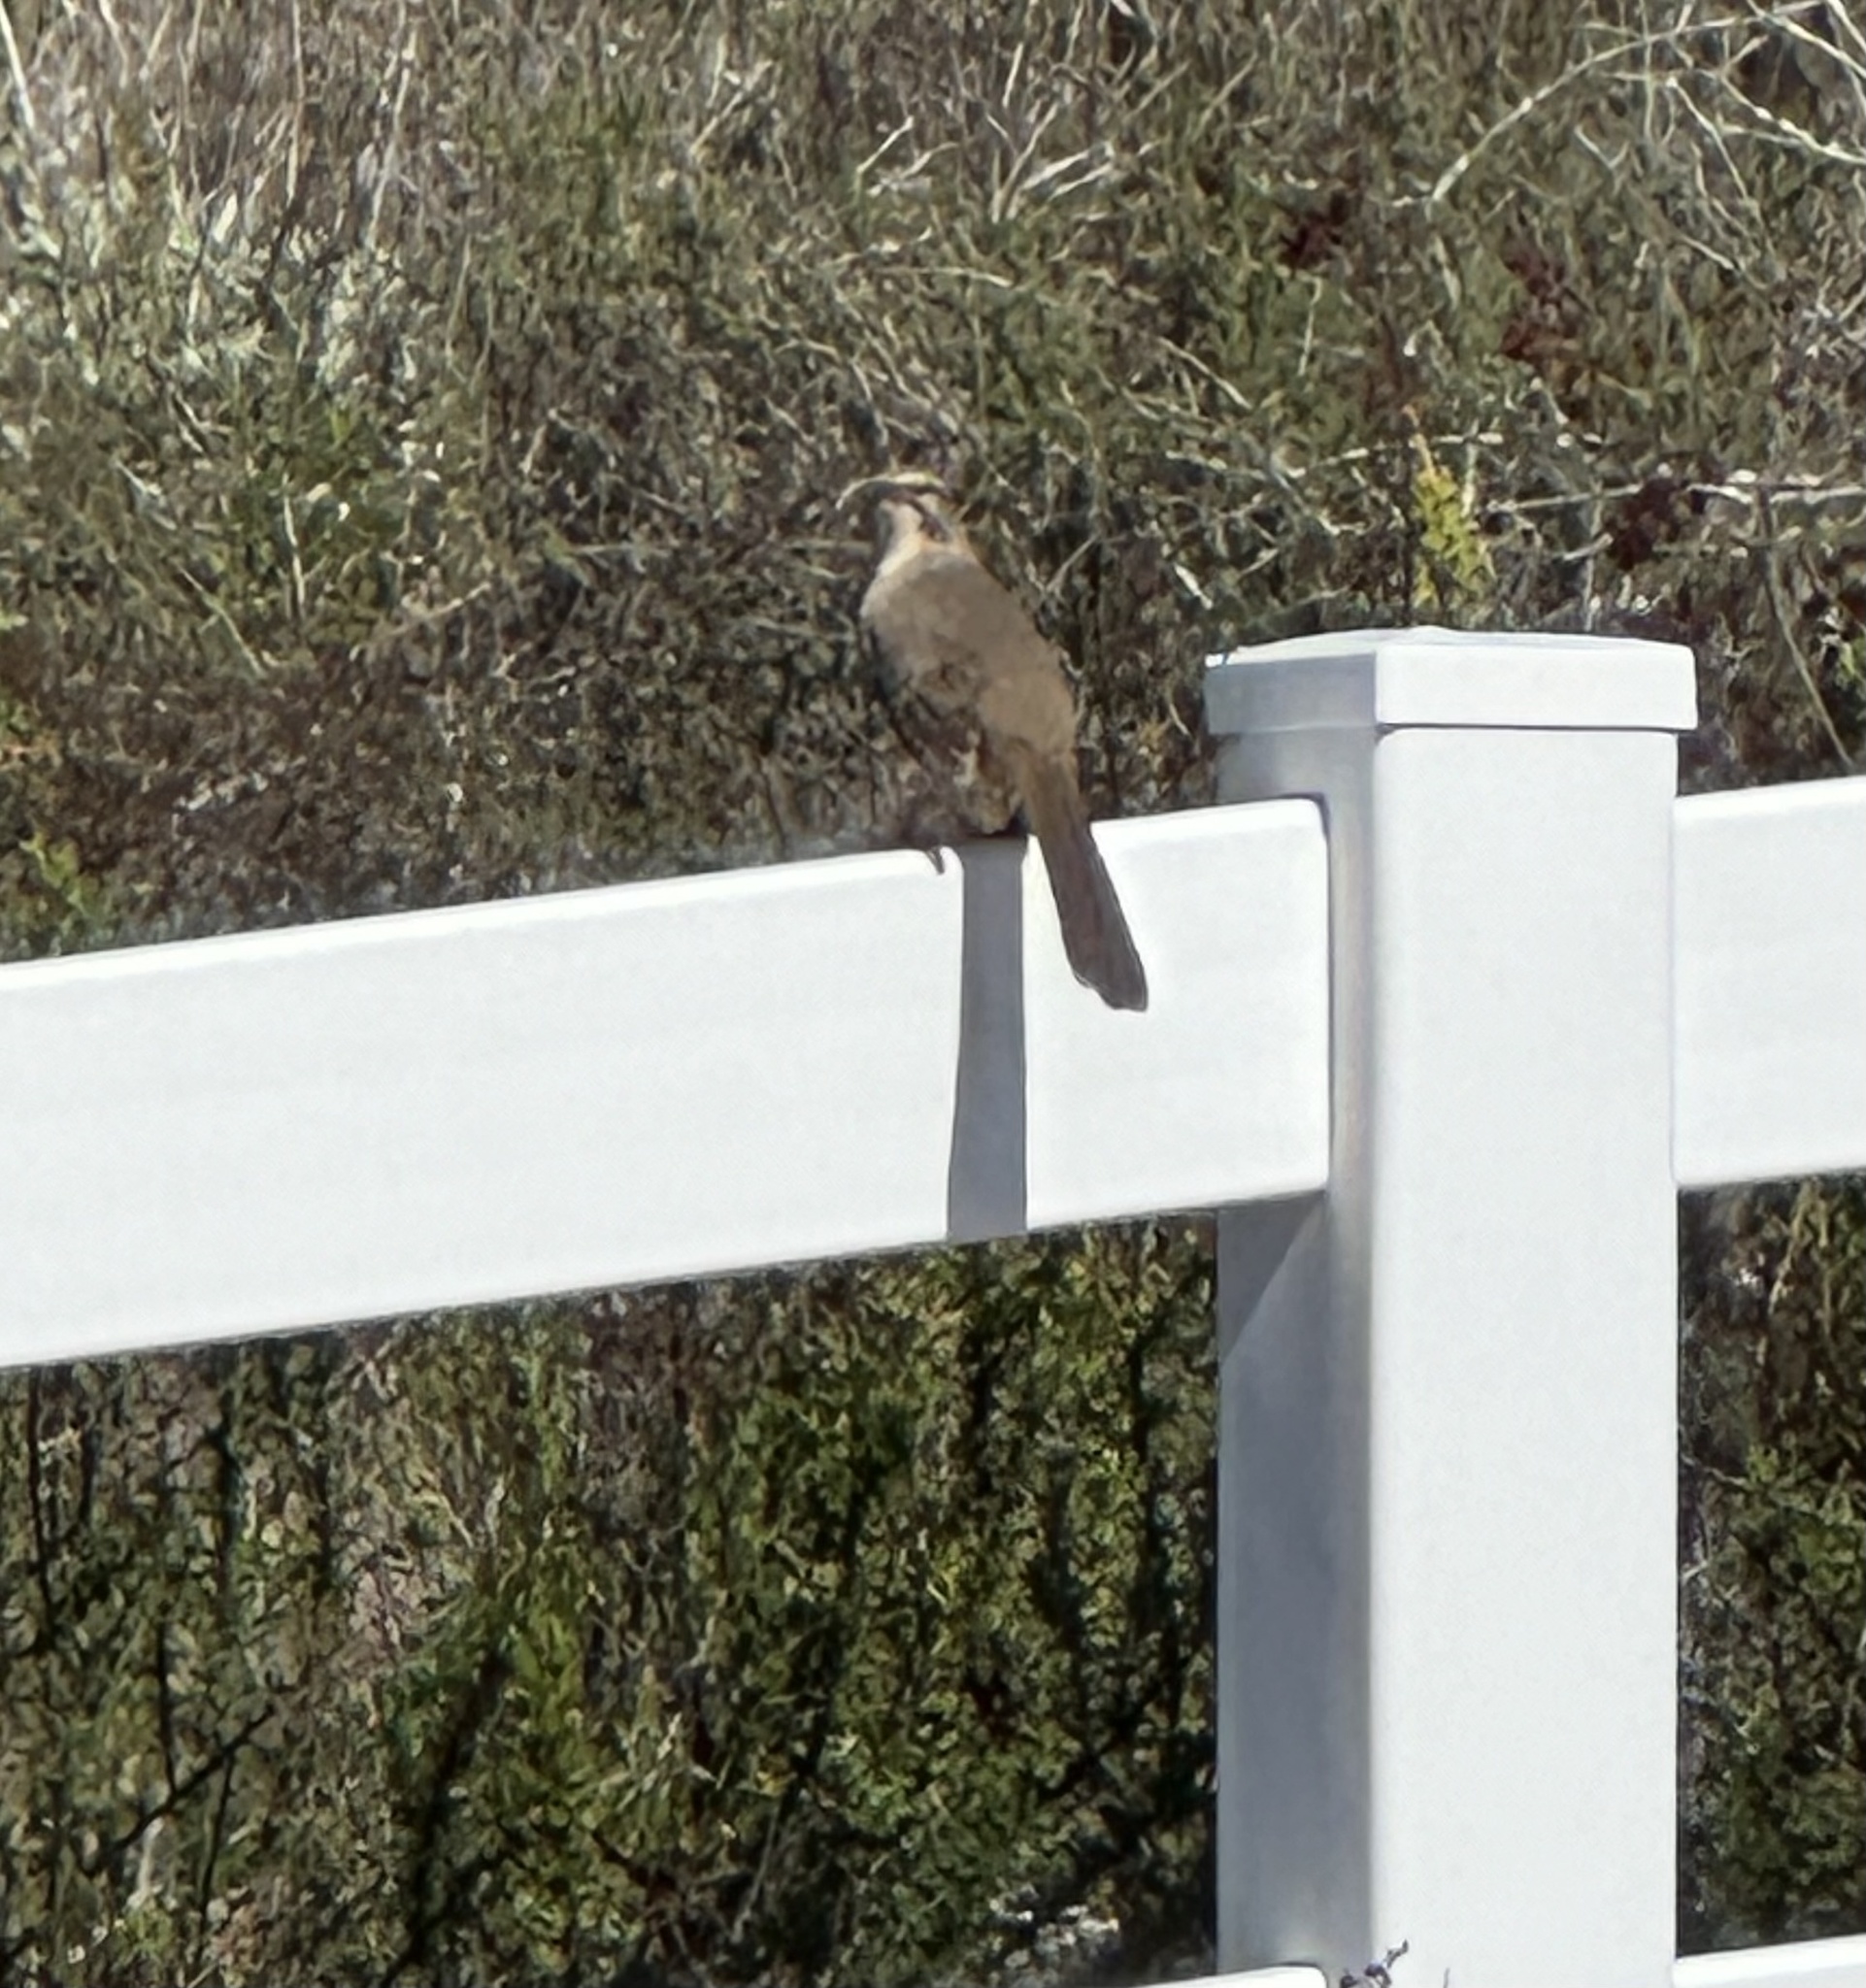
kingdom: Animalia
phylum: Chordata
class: Aves
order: Passeriformes
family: Mimidae
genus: Toxostoma
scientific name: Toxostoma redivivum
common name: California thrasher
